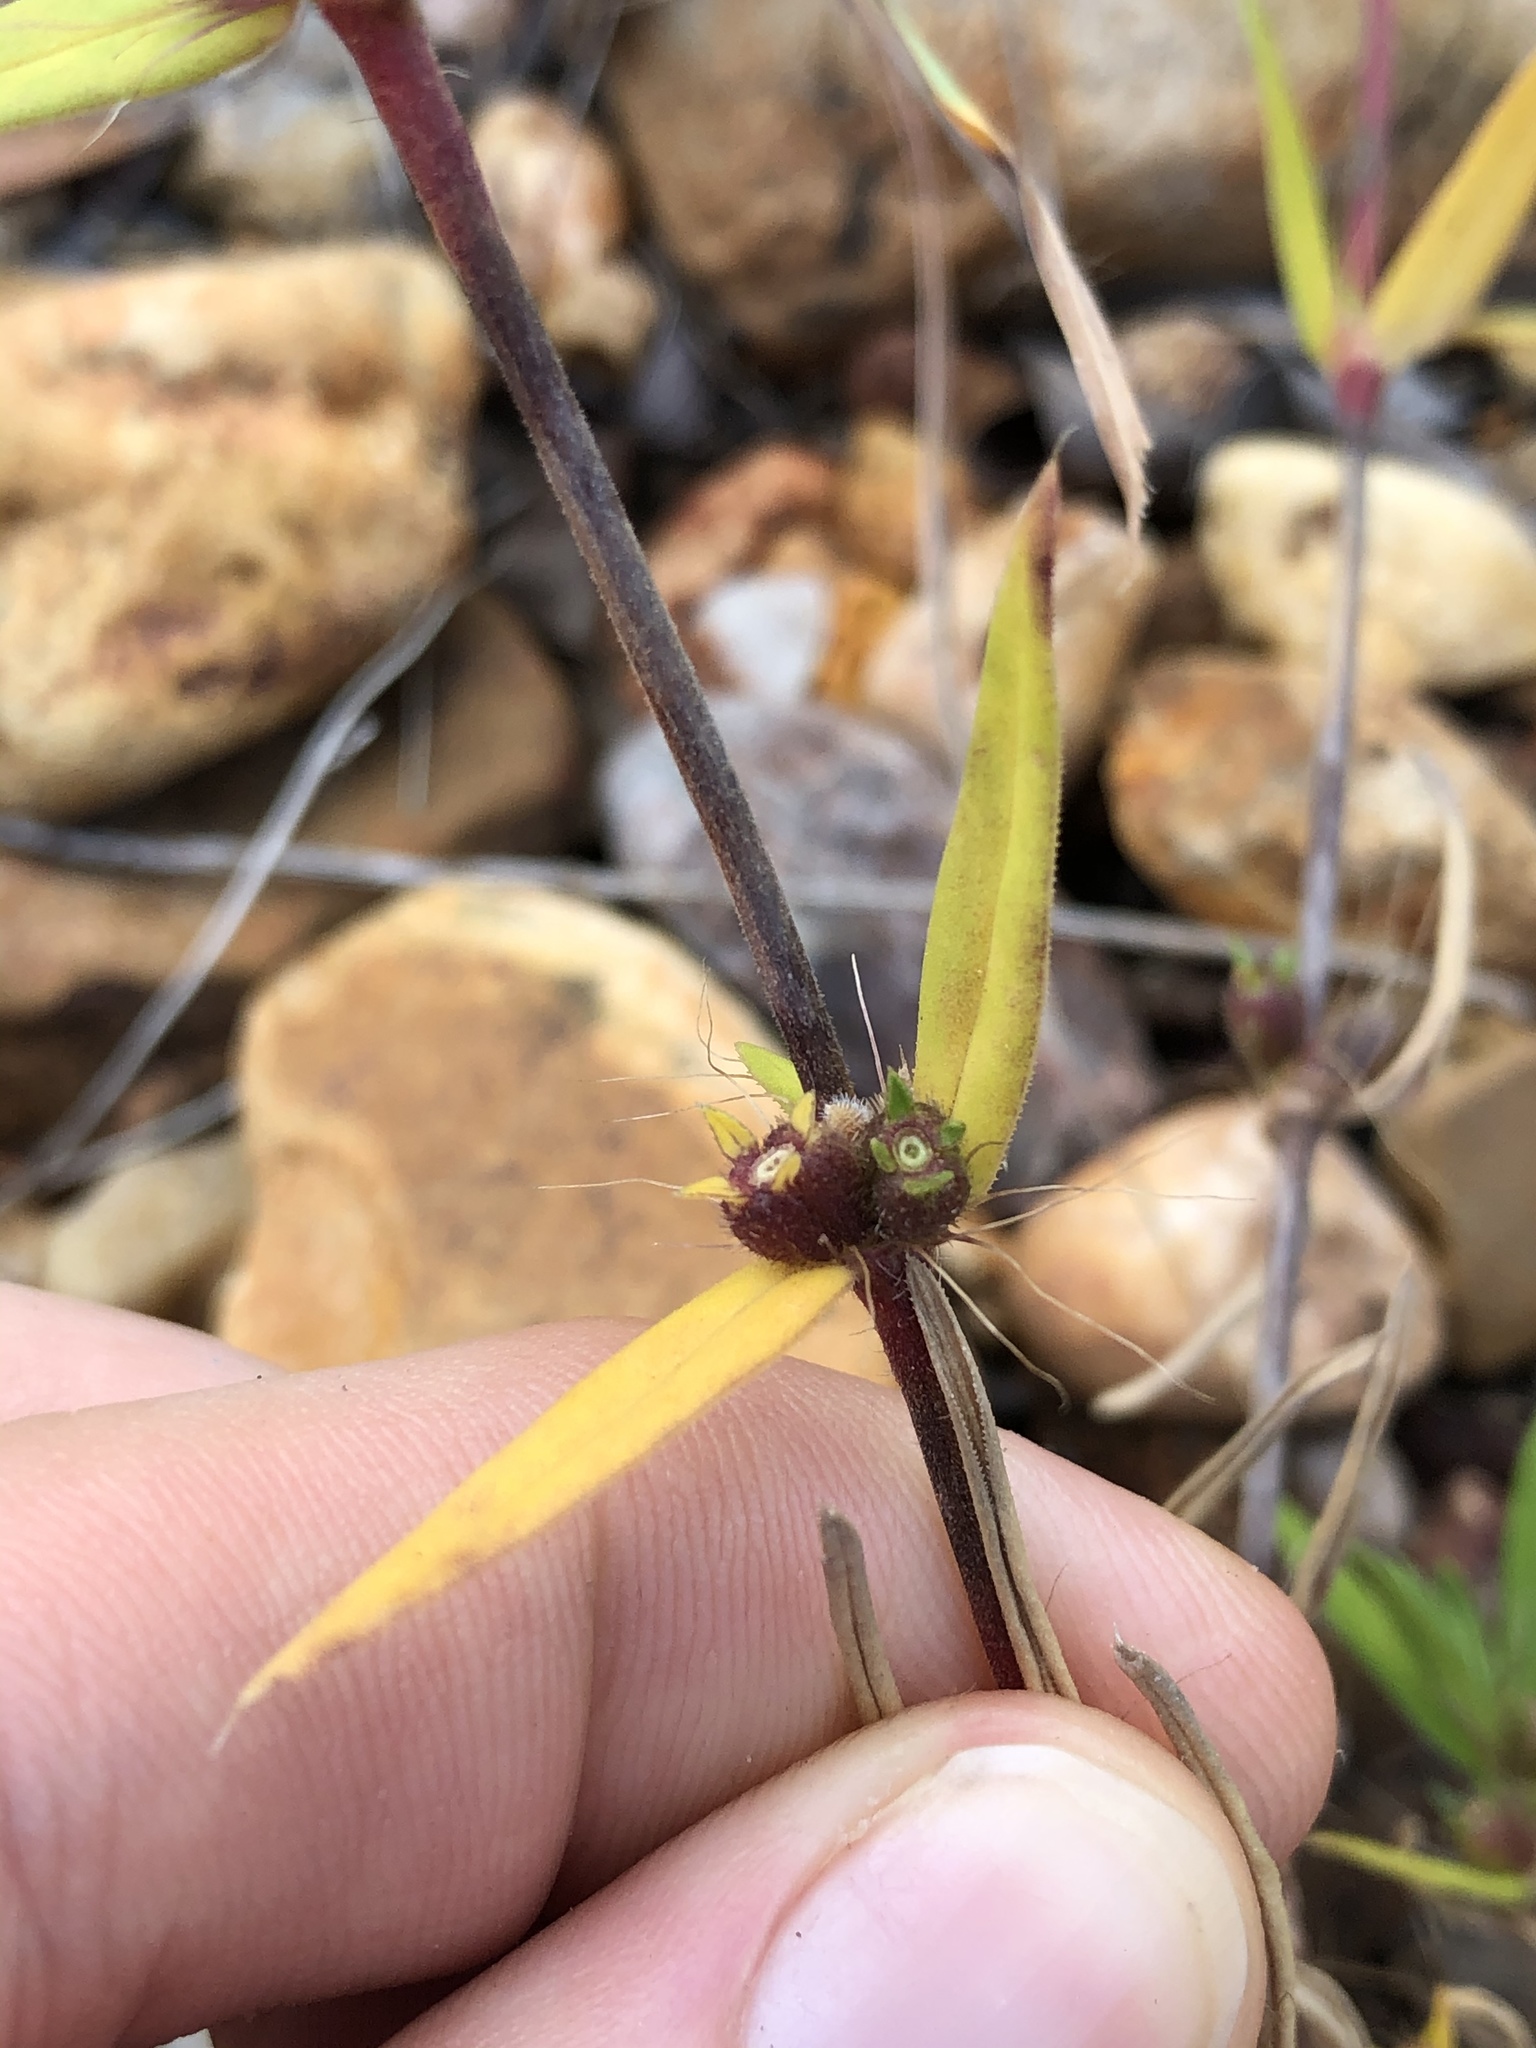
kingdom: Plantae
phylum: Tracheophyta
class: Magnoliopsida
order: Gentianales
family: Rubiaceae
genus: Hexasepalum
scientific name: Hexasepalum teres
